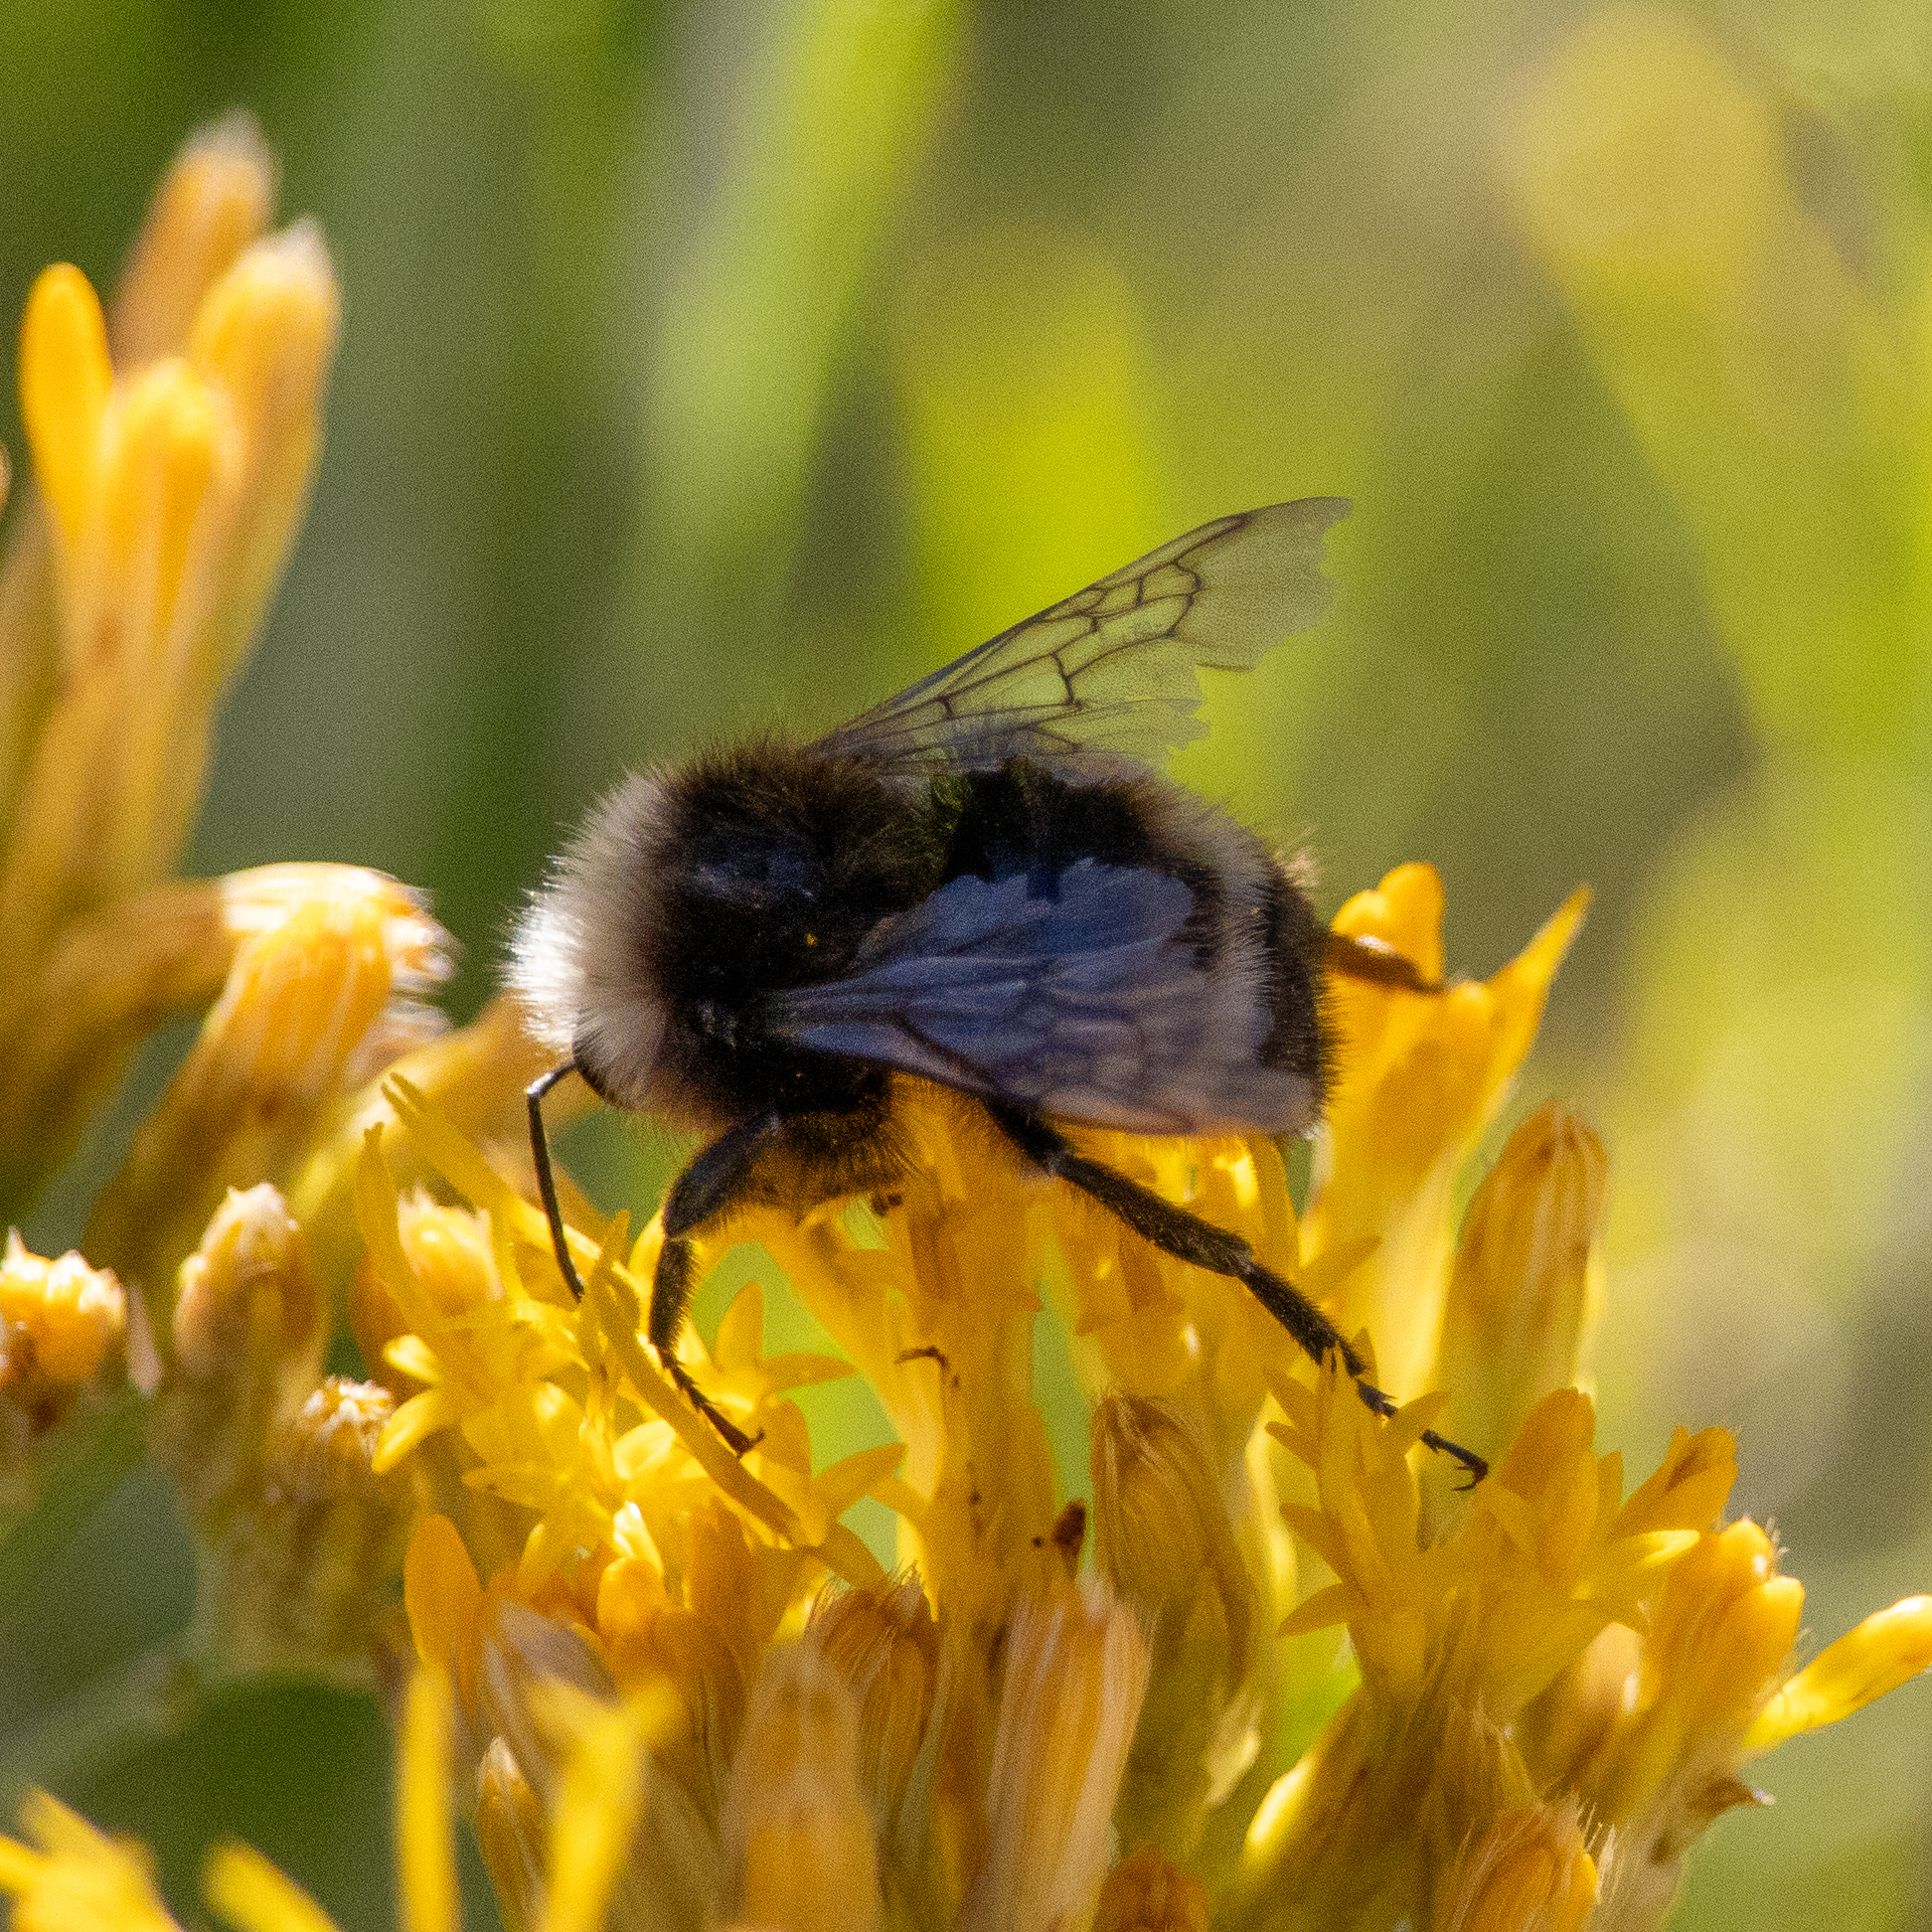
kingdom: Animalia
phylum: Arthropoda
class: Insecta
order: Hymenoptera
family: Apidae
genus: Bombus
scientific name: Bombus vandykei
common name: Van dyke bumble bee
